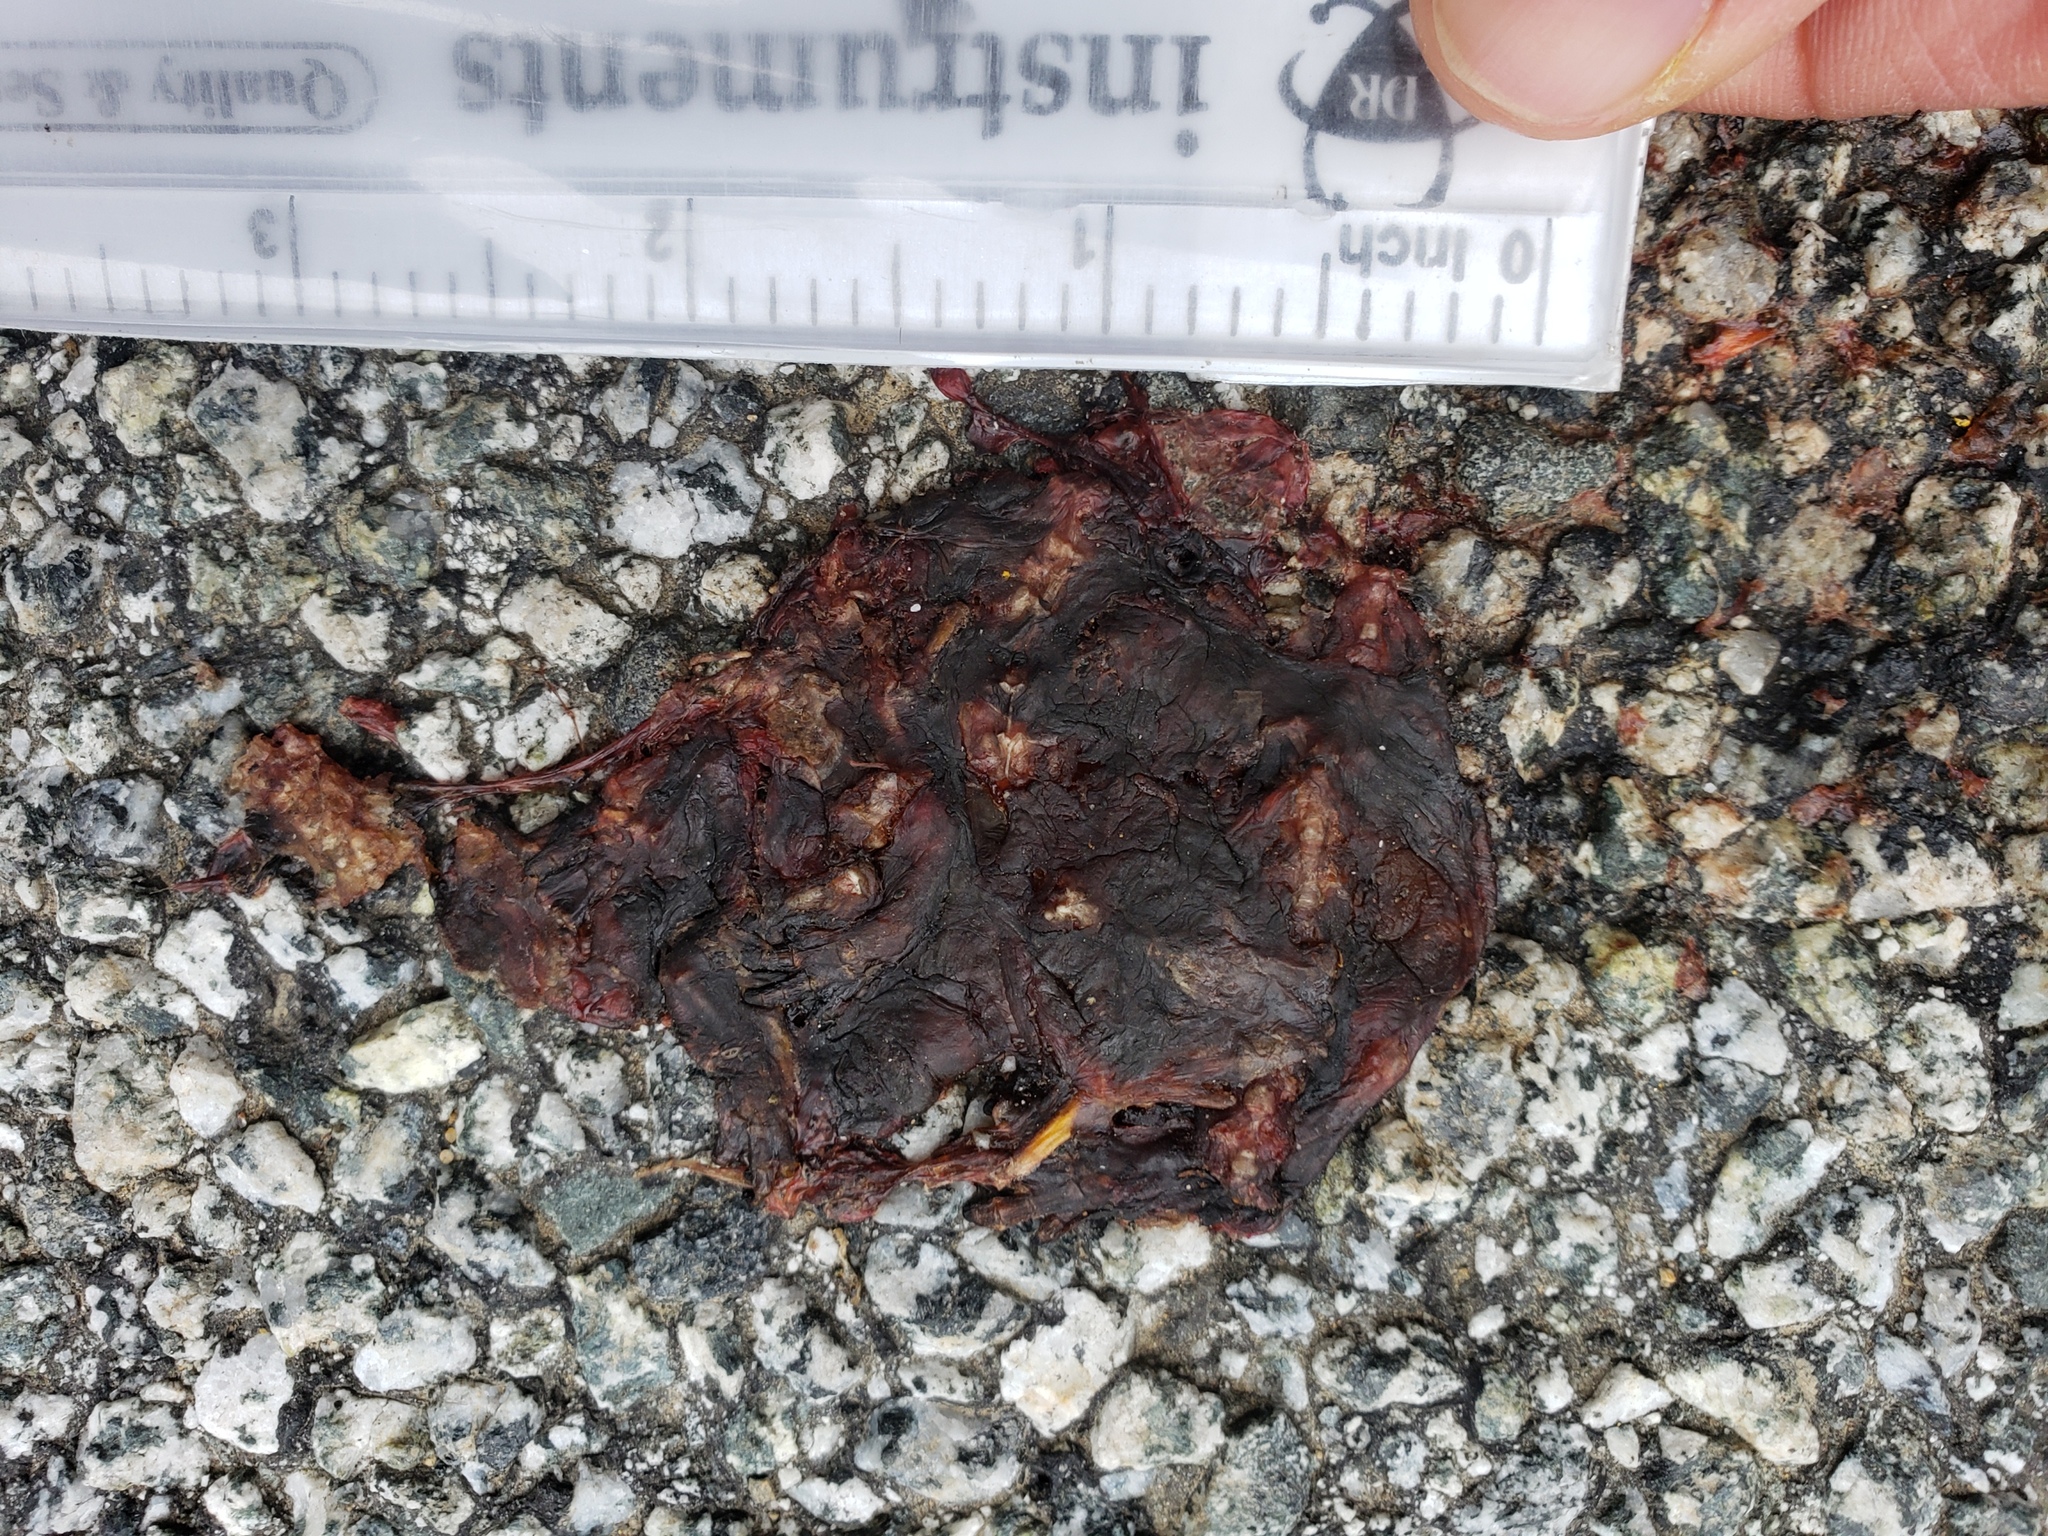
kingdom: Animalia
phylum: Chordata
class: Amphibia
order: Caudata
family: Salamandridae
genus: Taricha
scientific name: Taricha
